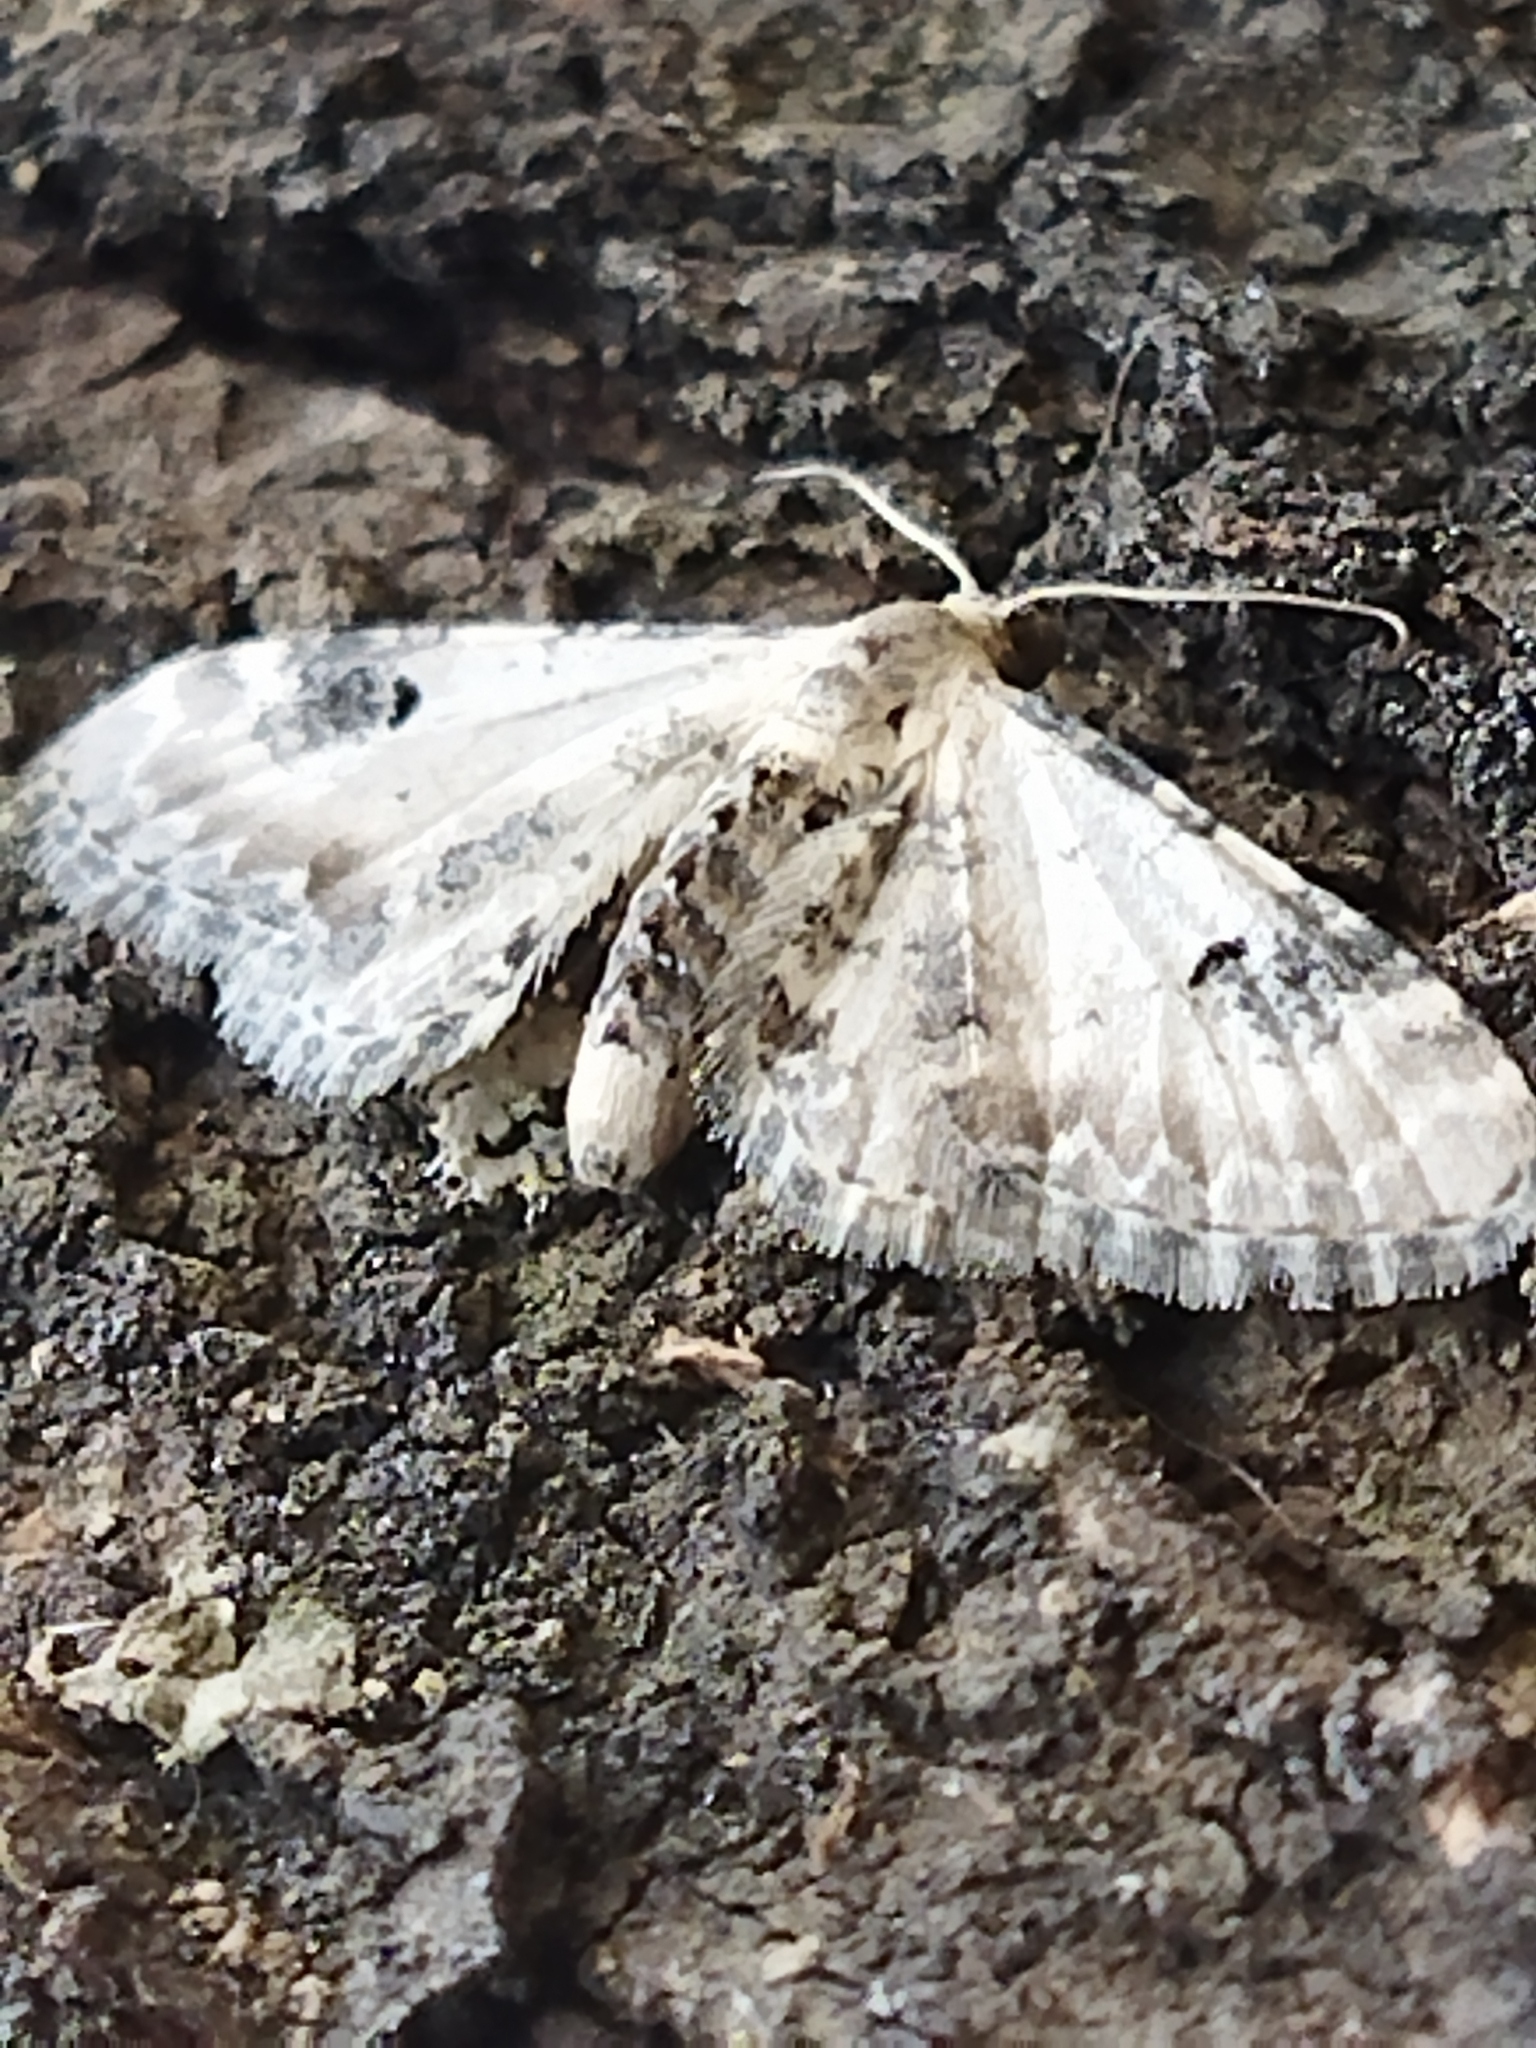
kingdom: Animalia
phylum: Arthropoda
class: Insecta
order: Lepidoptera
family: Geometridae
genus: Eupithecia
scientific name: Eupithecia centaureata
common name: Lime-speck pug
